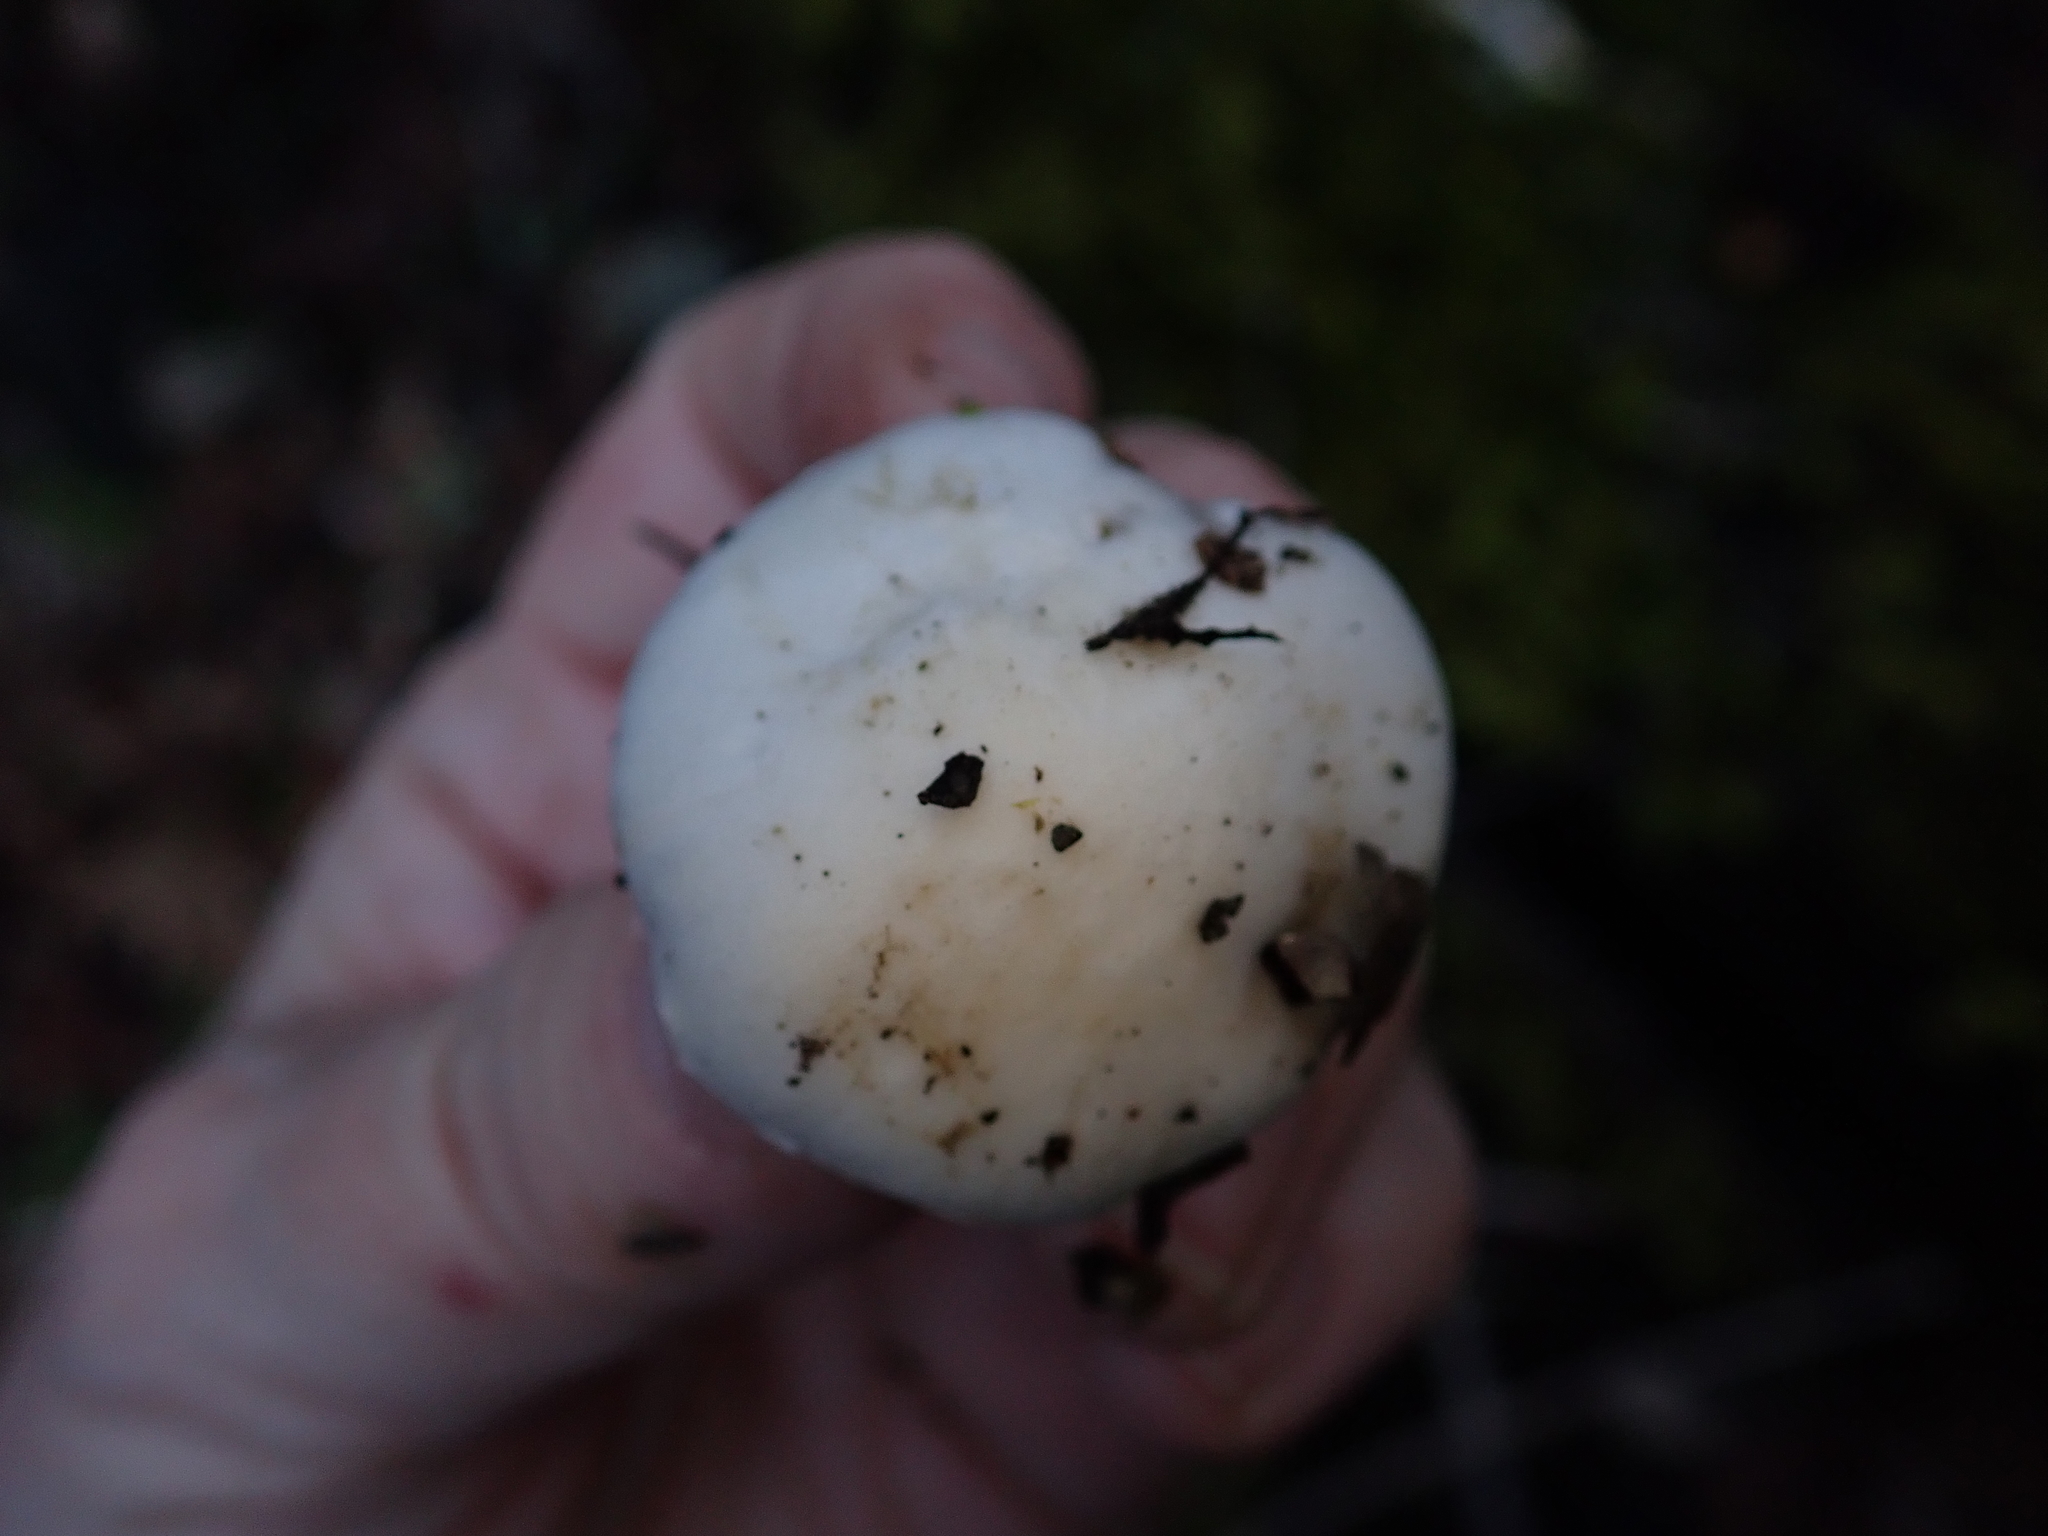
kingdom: Fungi
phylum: Basidiomycota
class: Agaricomycetes
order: Agaricales
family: Inocybaceae
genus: Inocybe
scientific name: Inocybe insinuata
